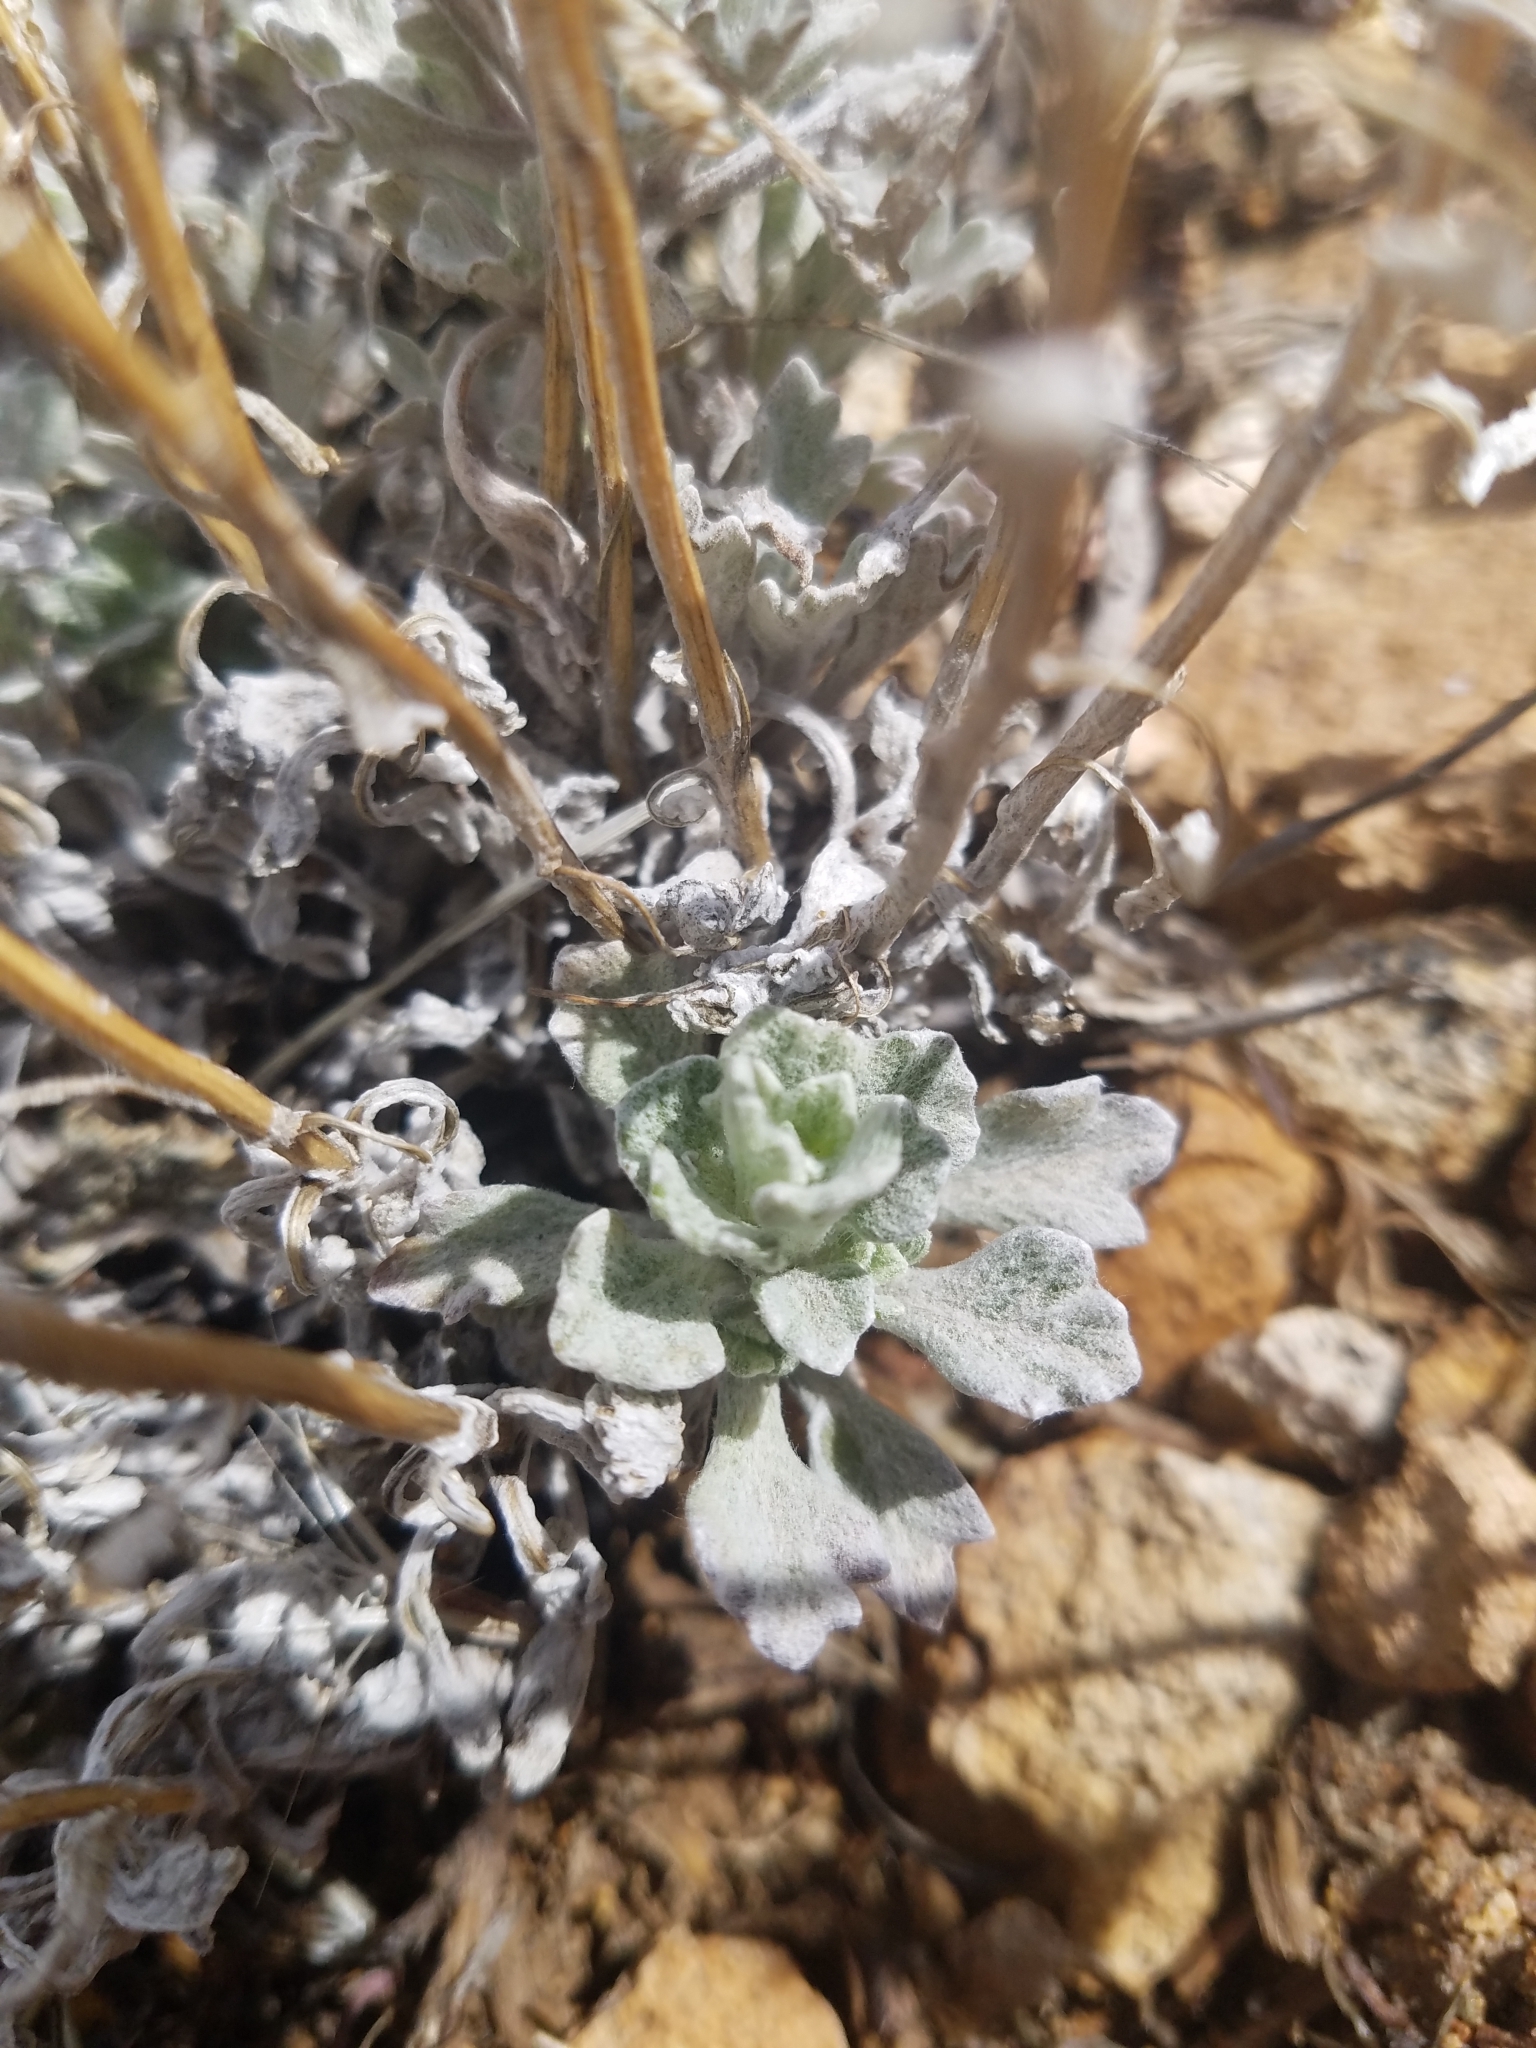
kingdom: Plantae
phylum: Tracheophyta
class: Magnoliopsida
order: Asterales
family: Asteraceae
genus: Eriophyllum
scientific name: Eriophyllum lanatum
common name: Common woolly-sunflower
